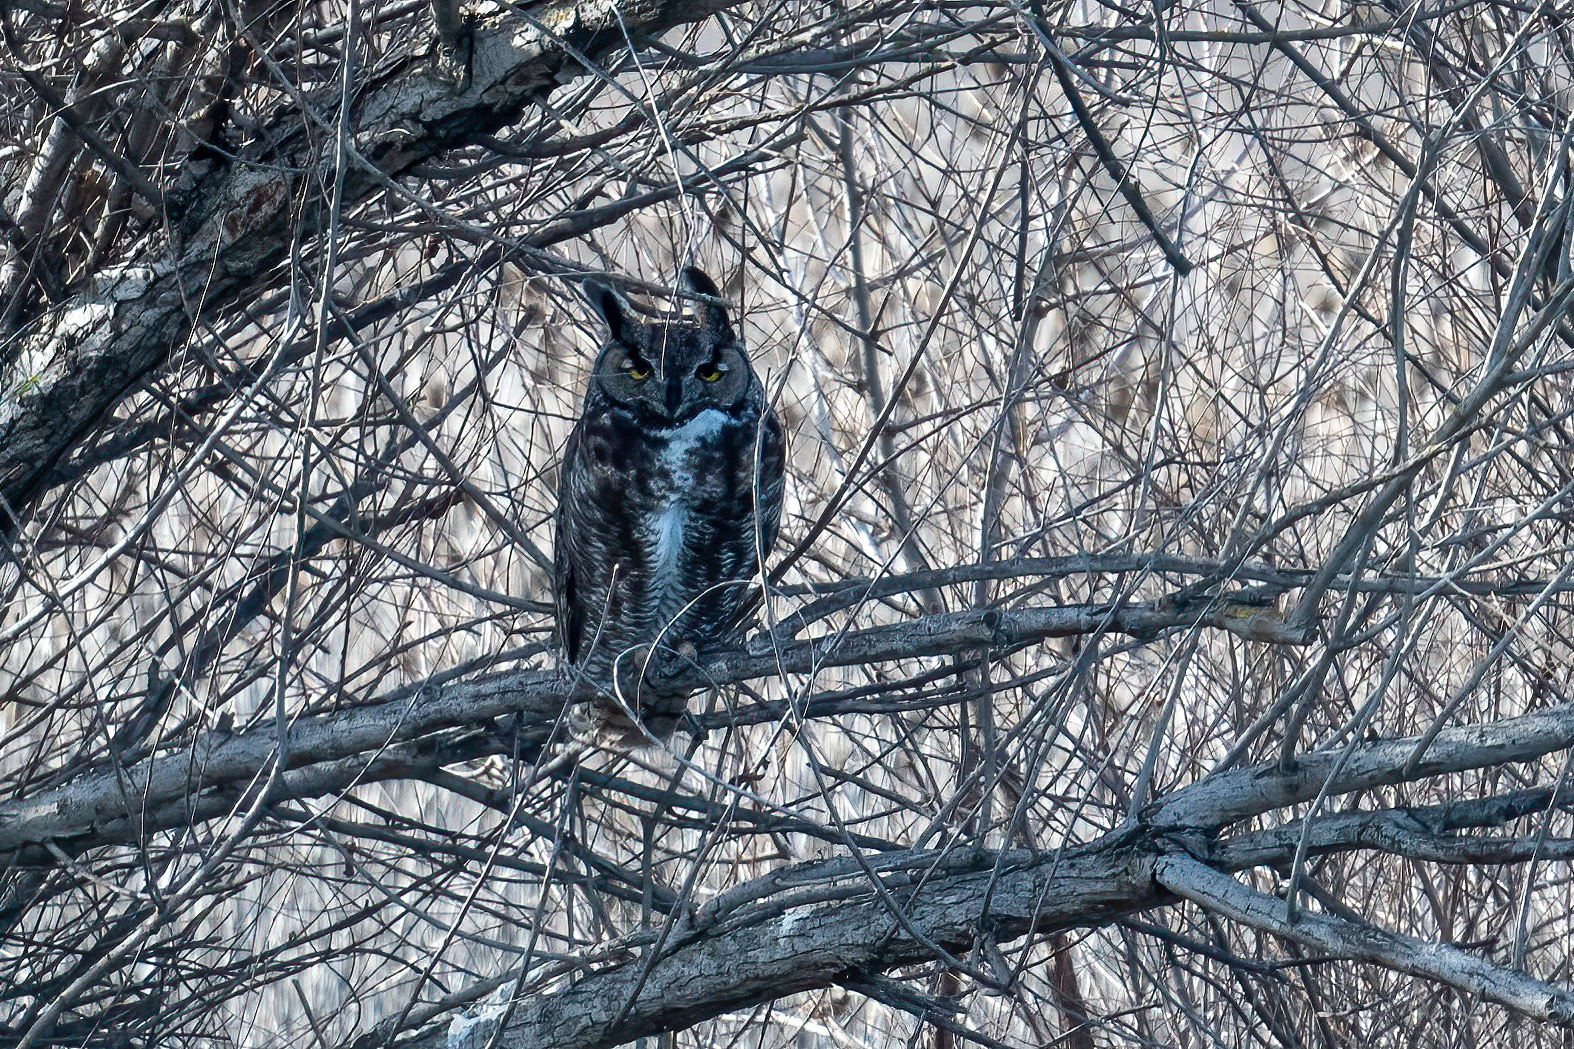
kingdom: Animalia
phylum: Chordata
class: Aves
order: Strigiformes
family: Strigidae
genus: Bubo
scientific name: Bubo virginianus
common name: Great horned owl
